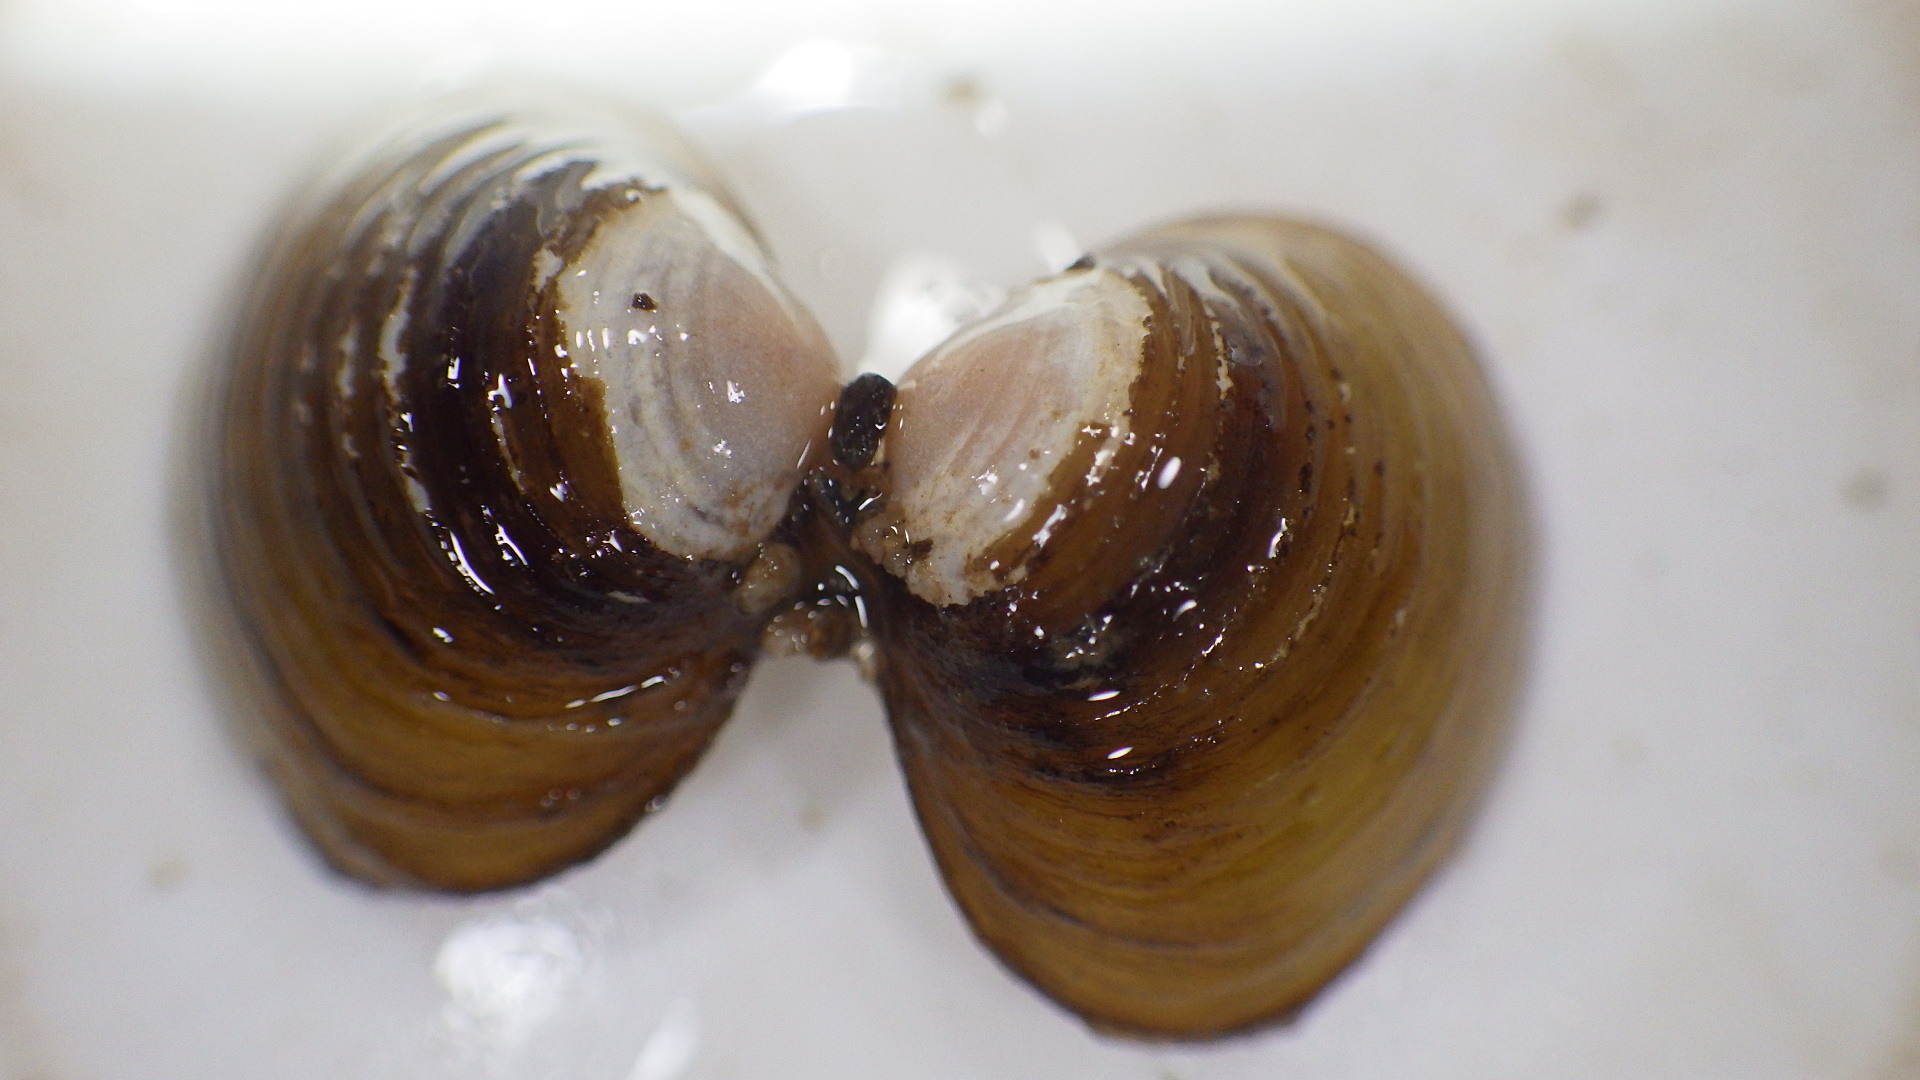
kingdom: Animalia
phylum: Mollusca
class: Bivalvia
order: Venerida
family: Cyrenidae
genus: Corbicula
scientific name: Corbicula fluminea
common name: Asian clam
